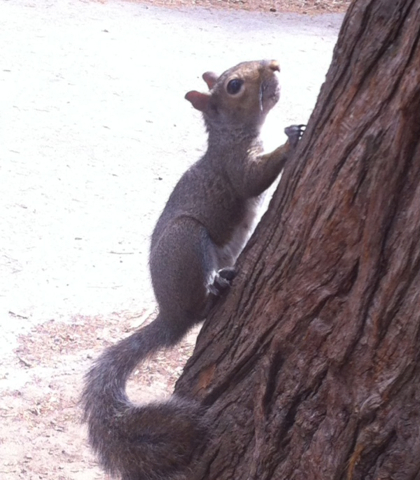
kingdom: Animalia
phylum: Chordata
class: Mammalia
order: Rodentia
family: Sciuridae
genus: Sciurus
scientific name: Sciurus carolinensis
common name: Eastern gray squirrel
